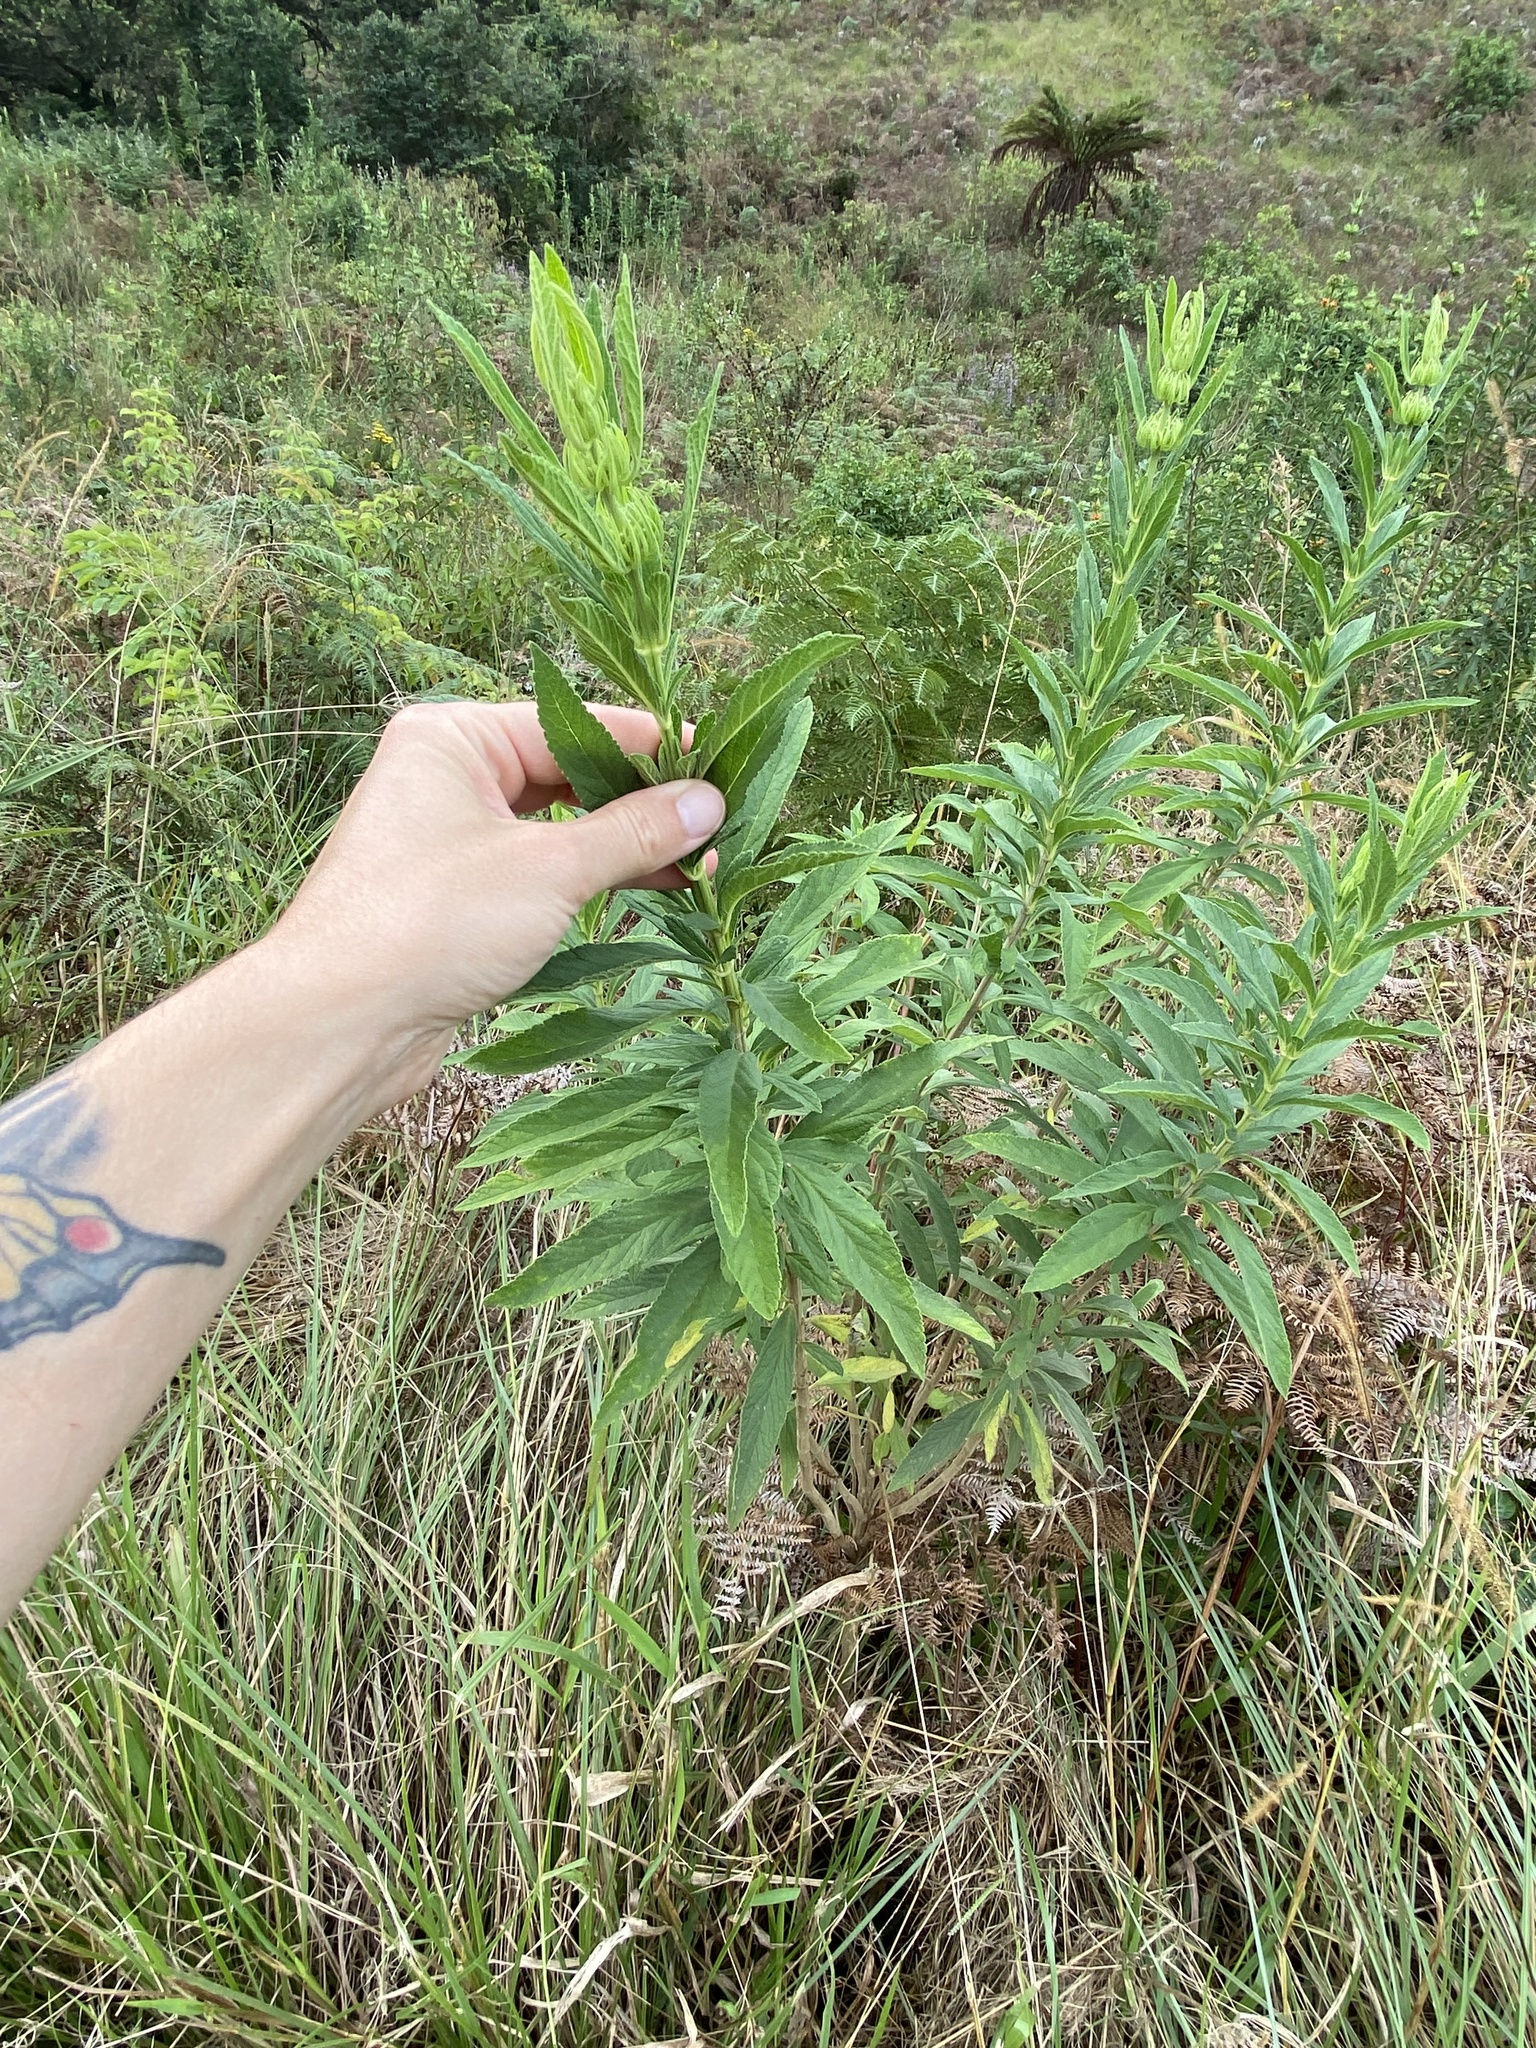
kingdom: Plantae
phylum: Tracheophyta
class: Magnoliopsida
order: Lamiales
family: Lamiaceae
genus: Leonotis
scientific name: Leonotis leonurus
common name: Lion's ear
